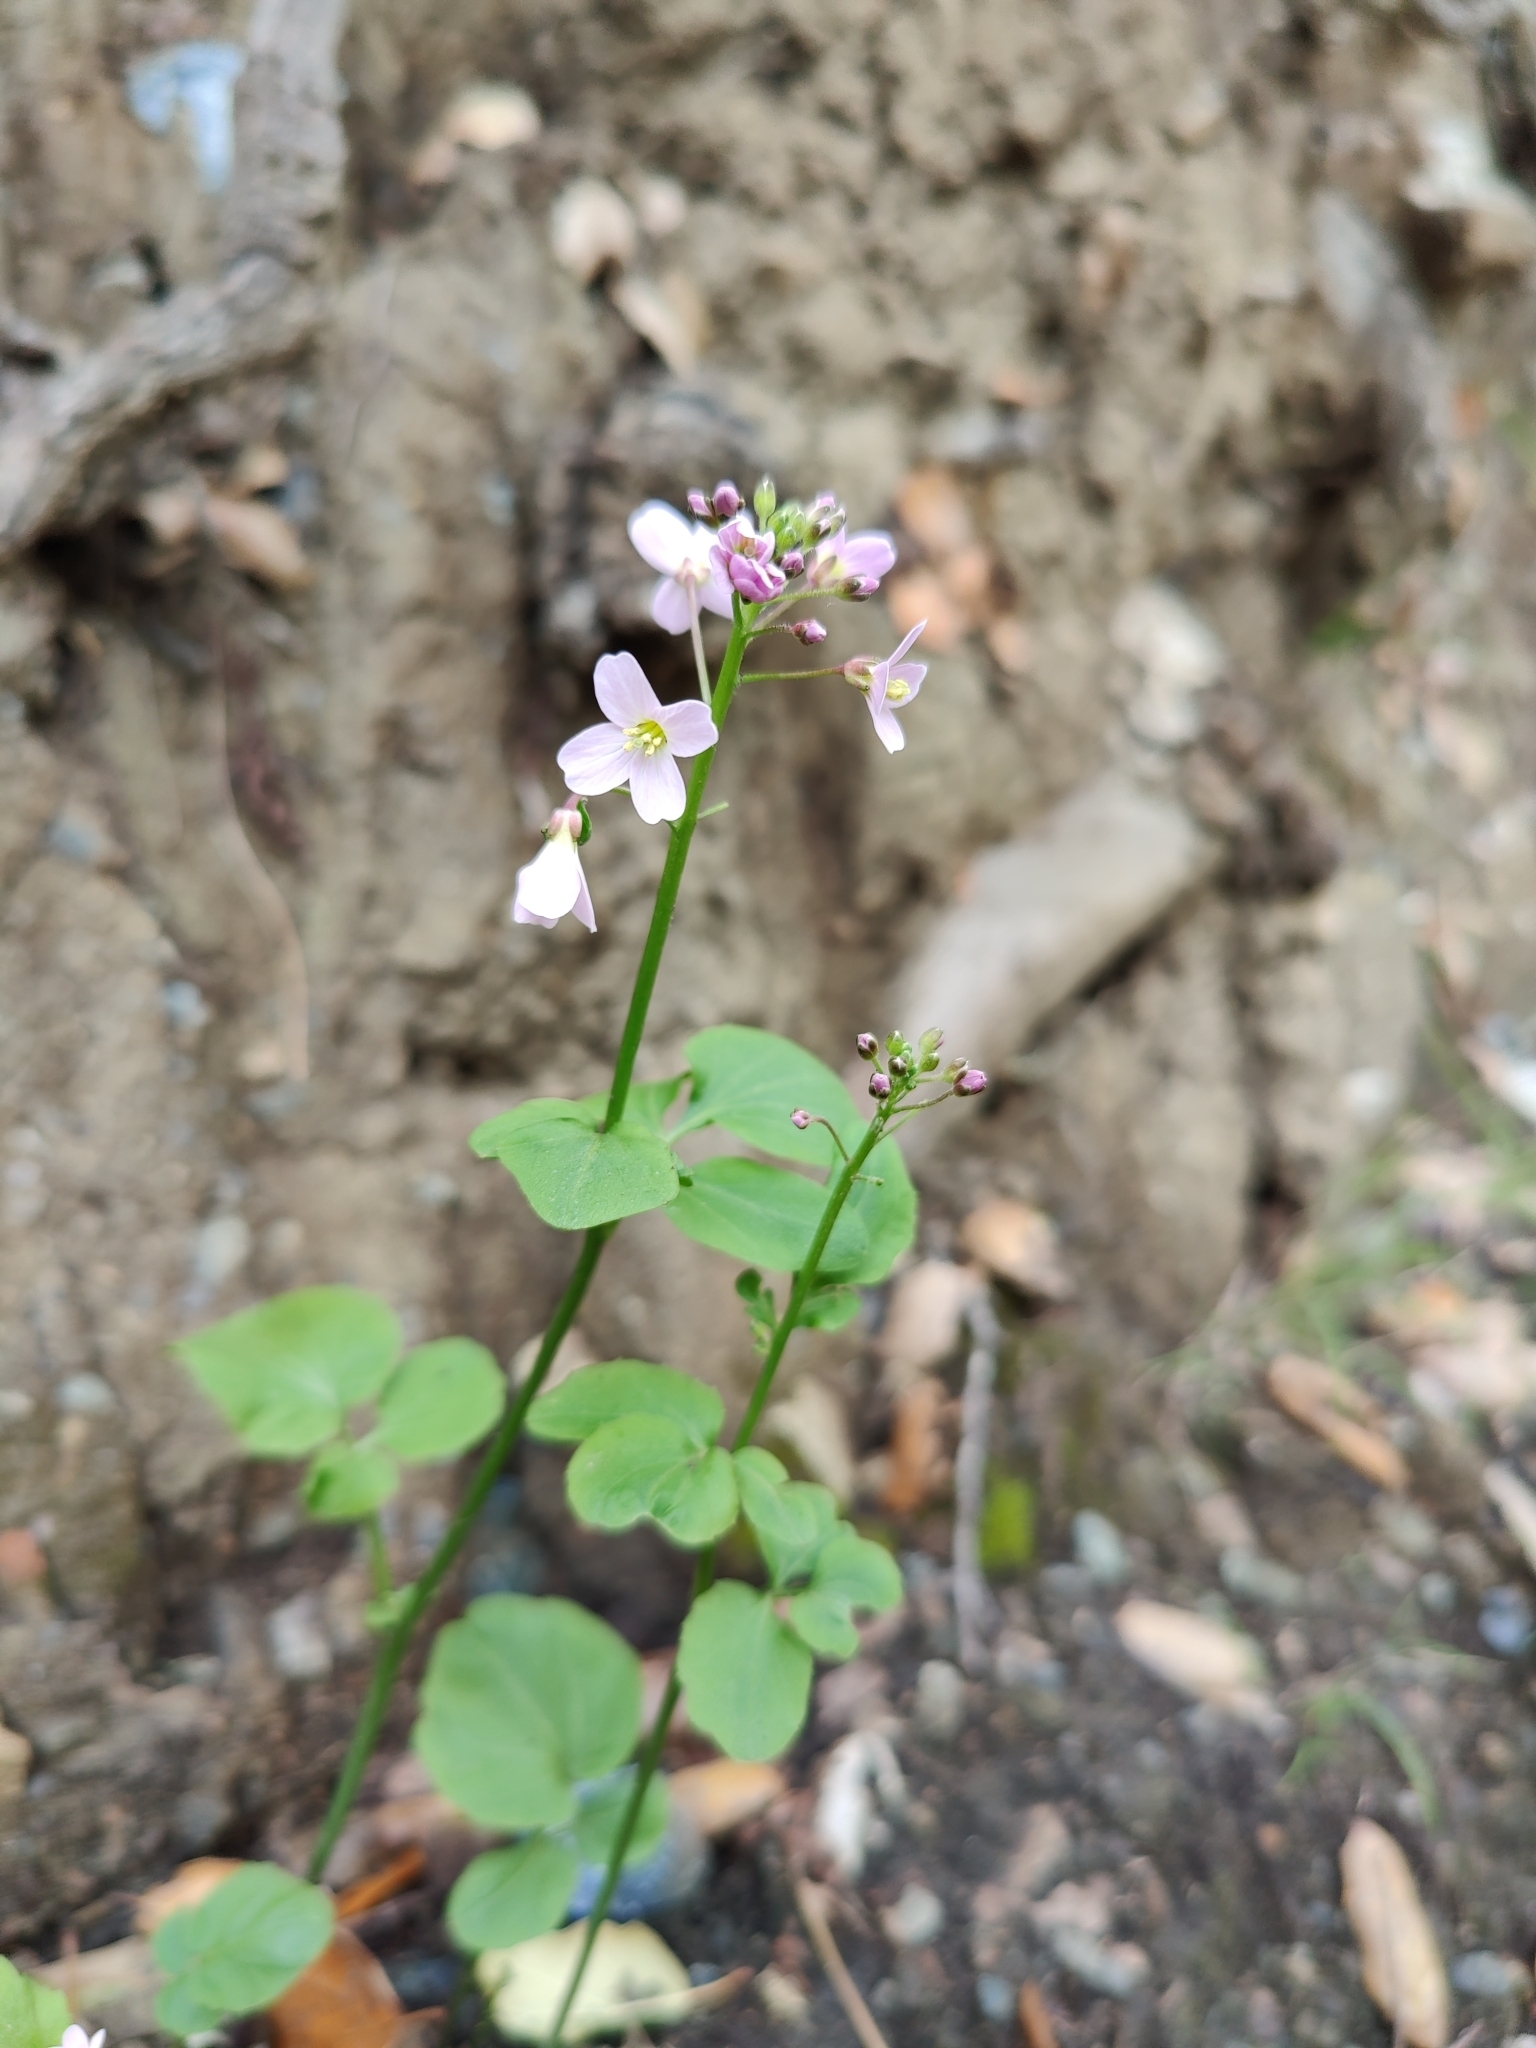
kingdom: Plantae
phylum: Tracheophyta
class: Magnoliopsida
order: Brassicales
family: Brassicaceae
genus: Cardamine
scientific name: Cardamine californica
